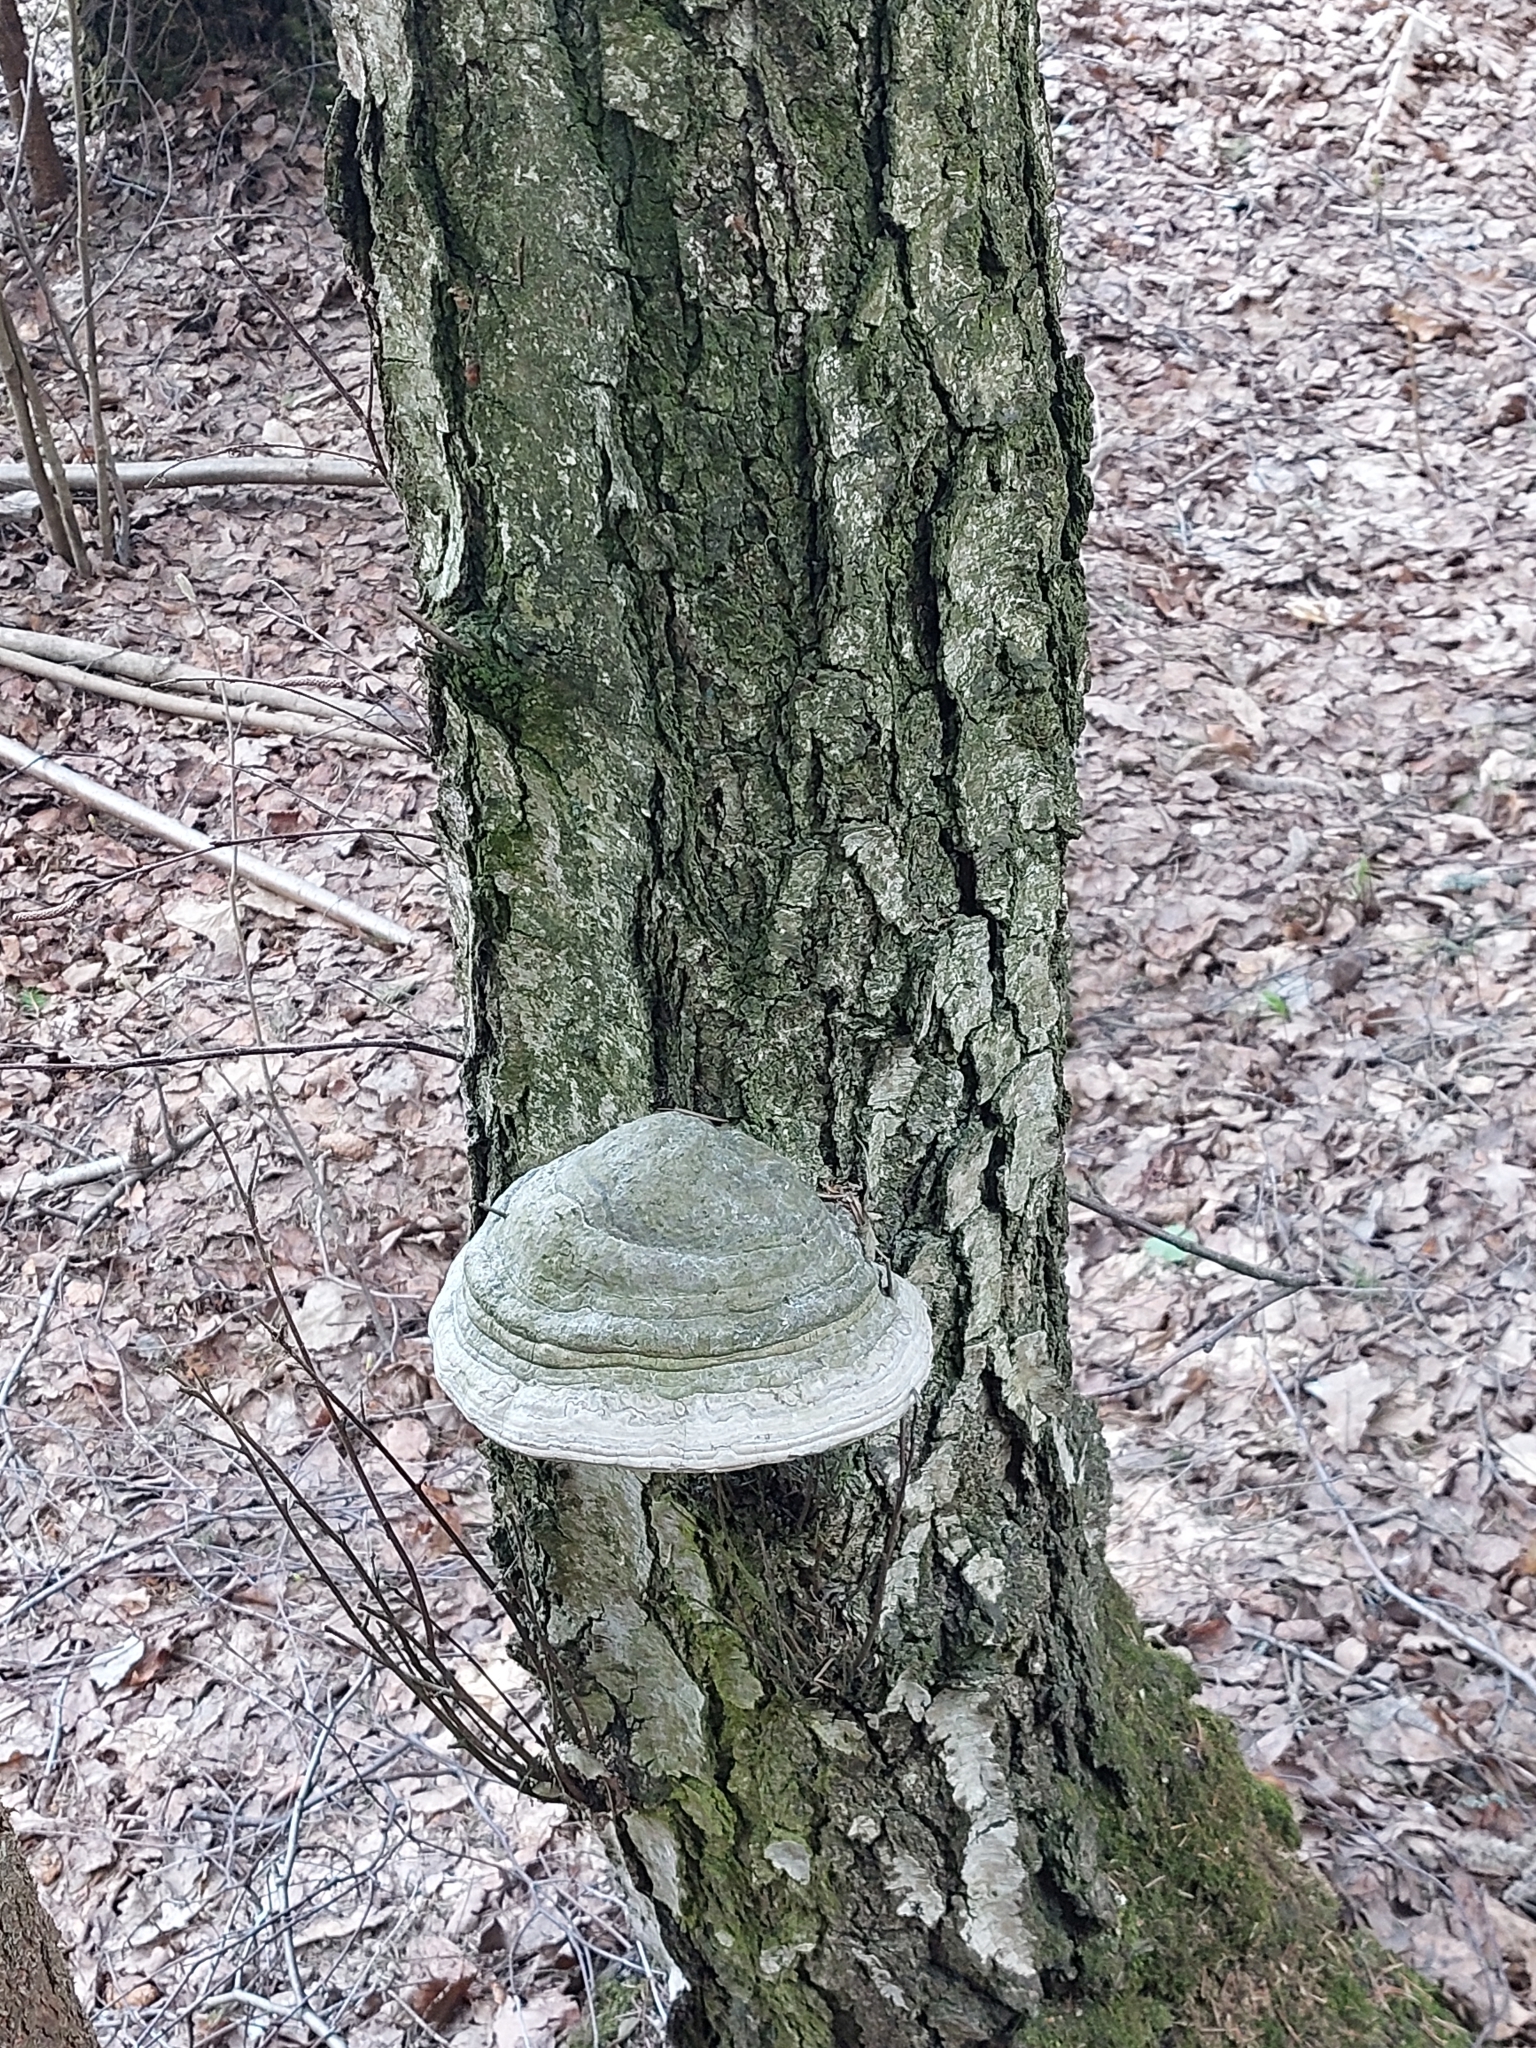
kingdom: Fungi
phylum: Basidiomycota
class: Agaricomycetes
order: Polyporales
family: Polyporaceae
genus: Fomes
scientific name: Fomes fomentarius
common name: Hoof fungus
